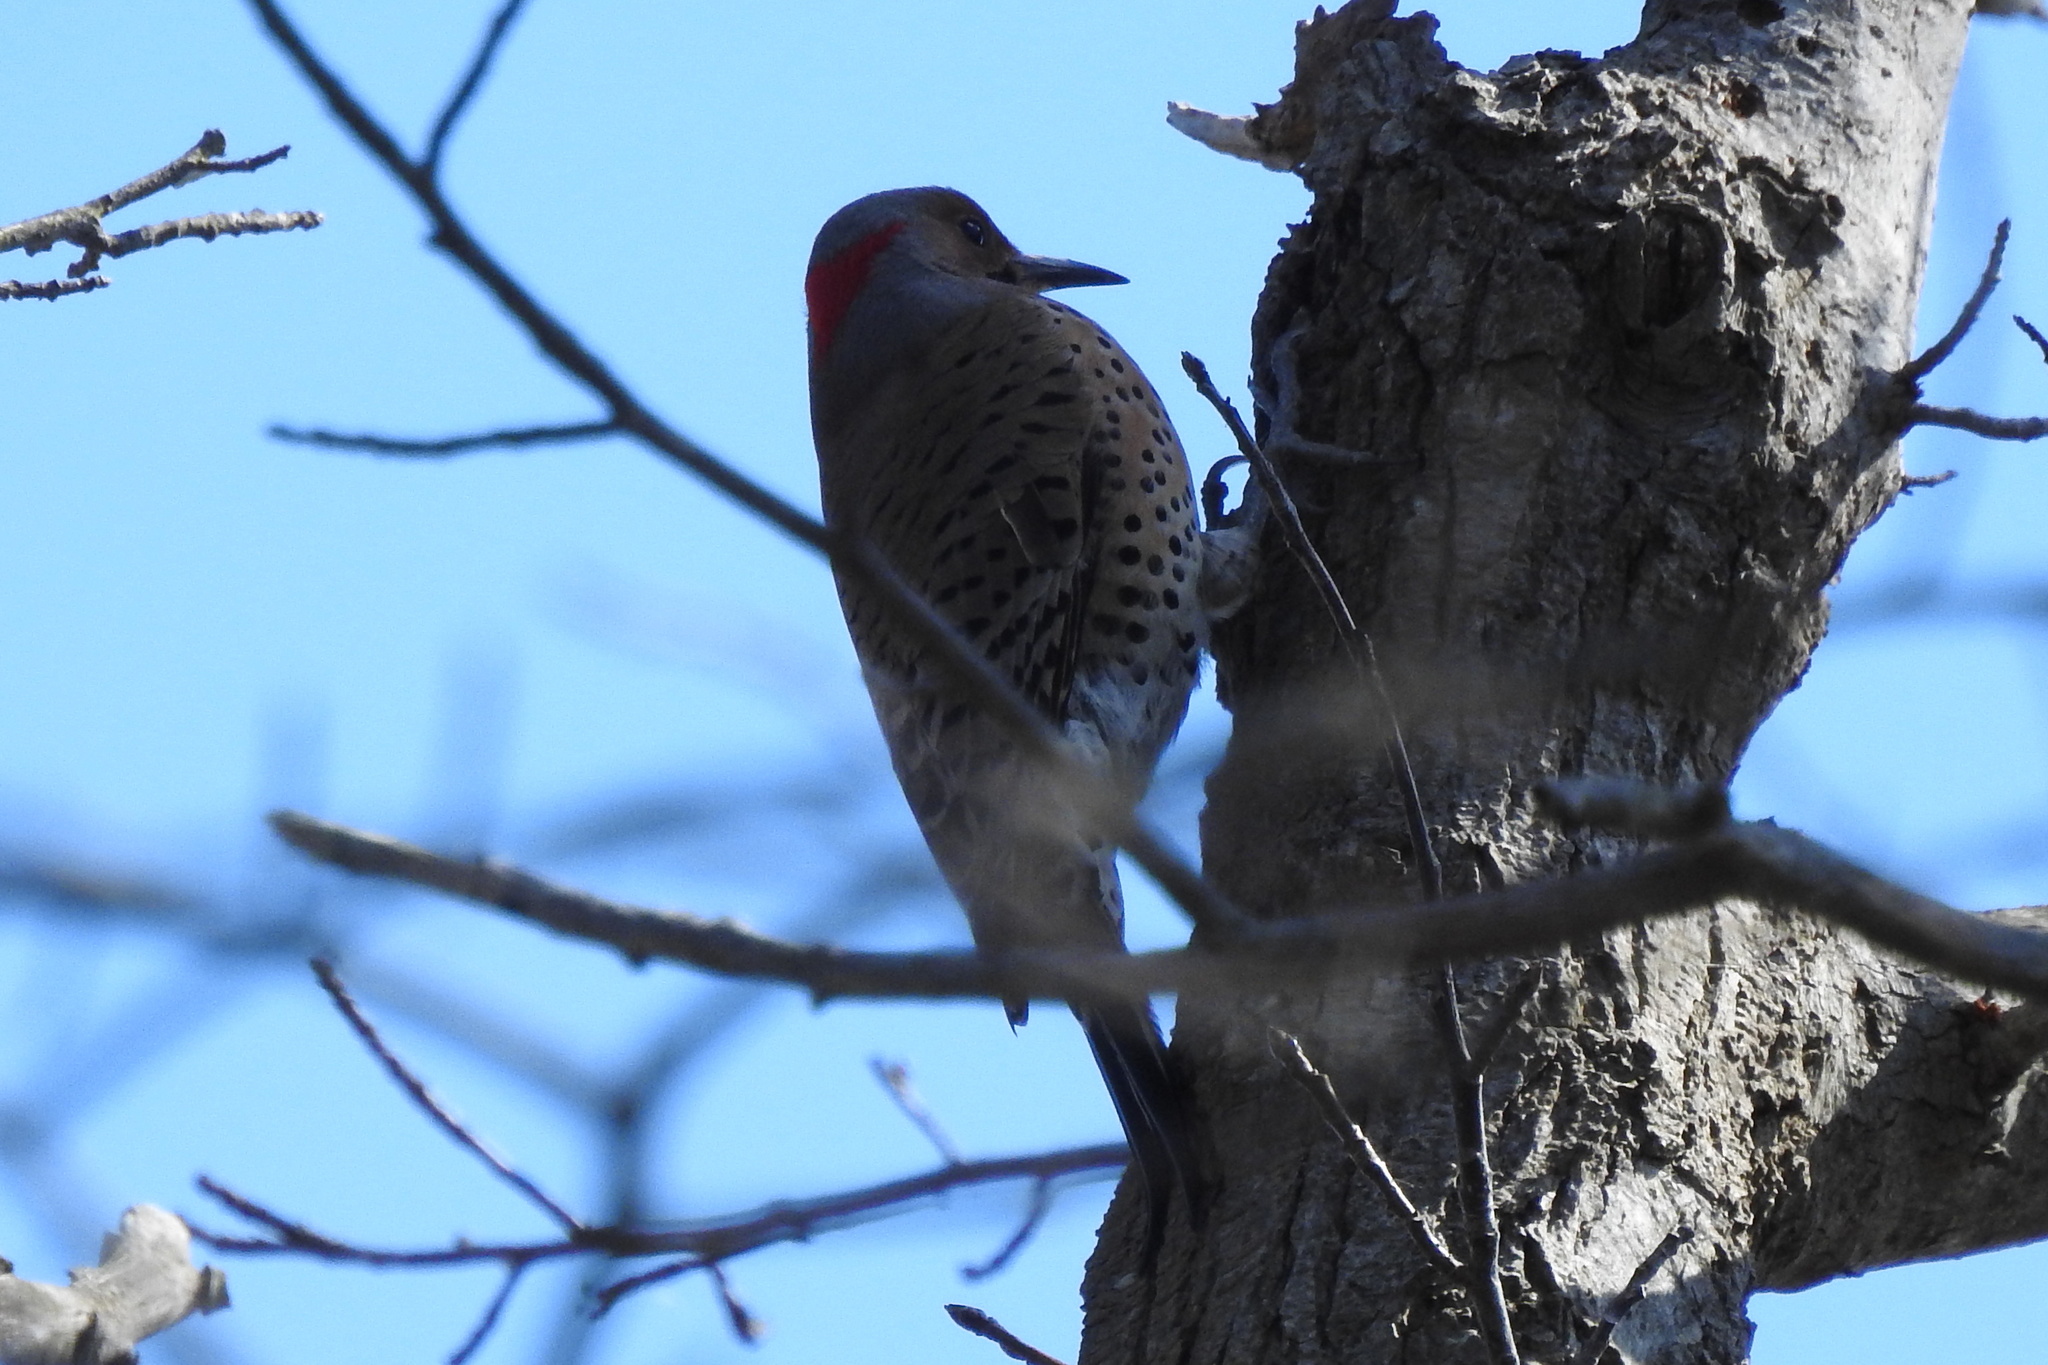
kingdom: Animalia
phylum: Chordata
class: Aves
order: Piciformes
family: Picidae
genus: Colaptes
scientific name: Colaptes auratus
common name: Northern flicker
